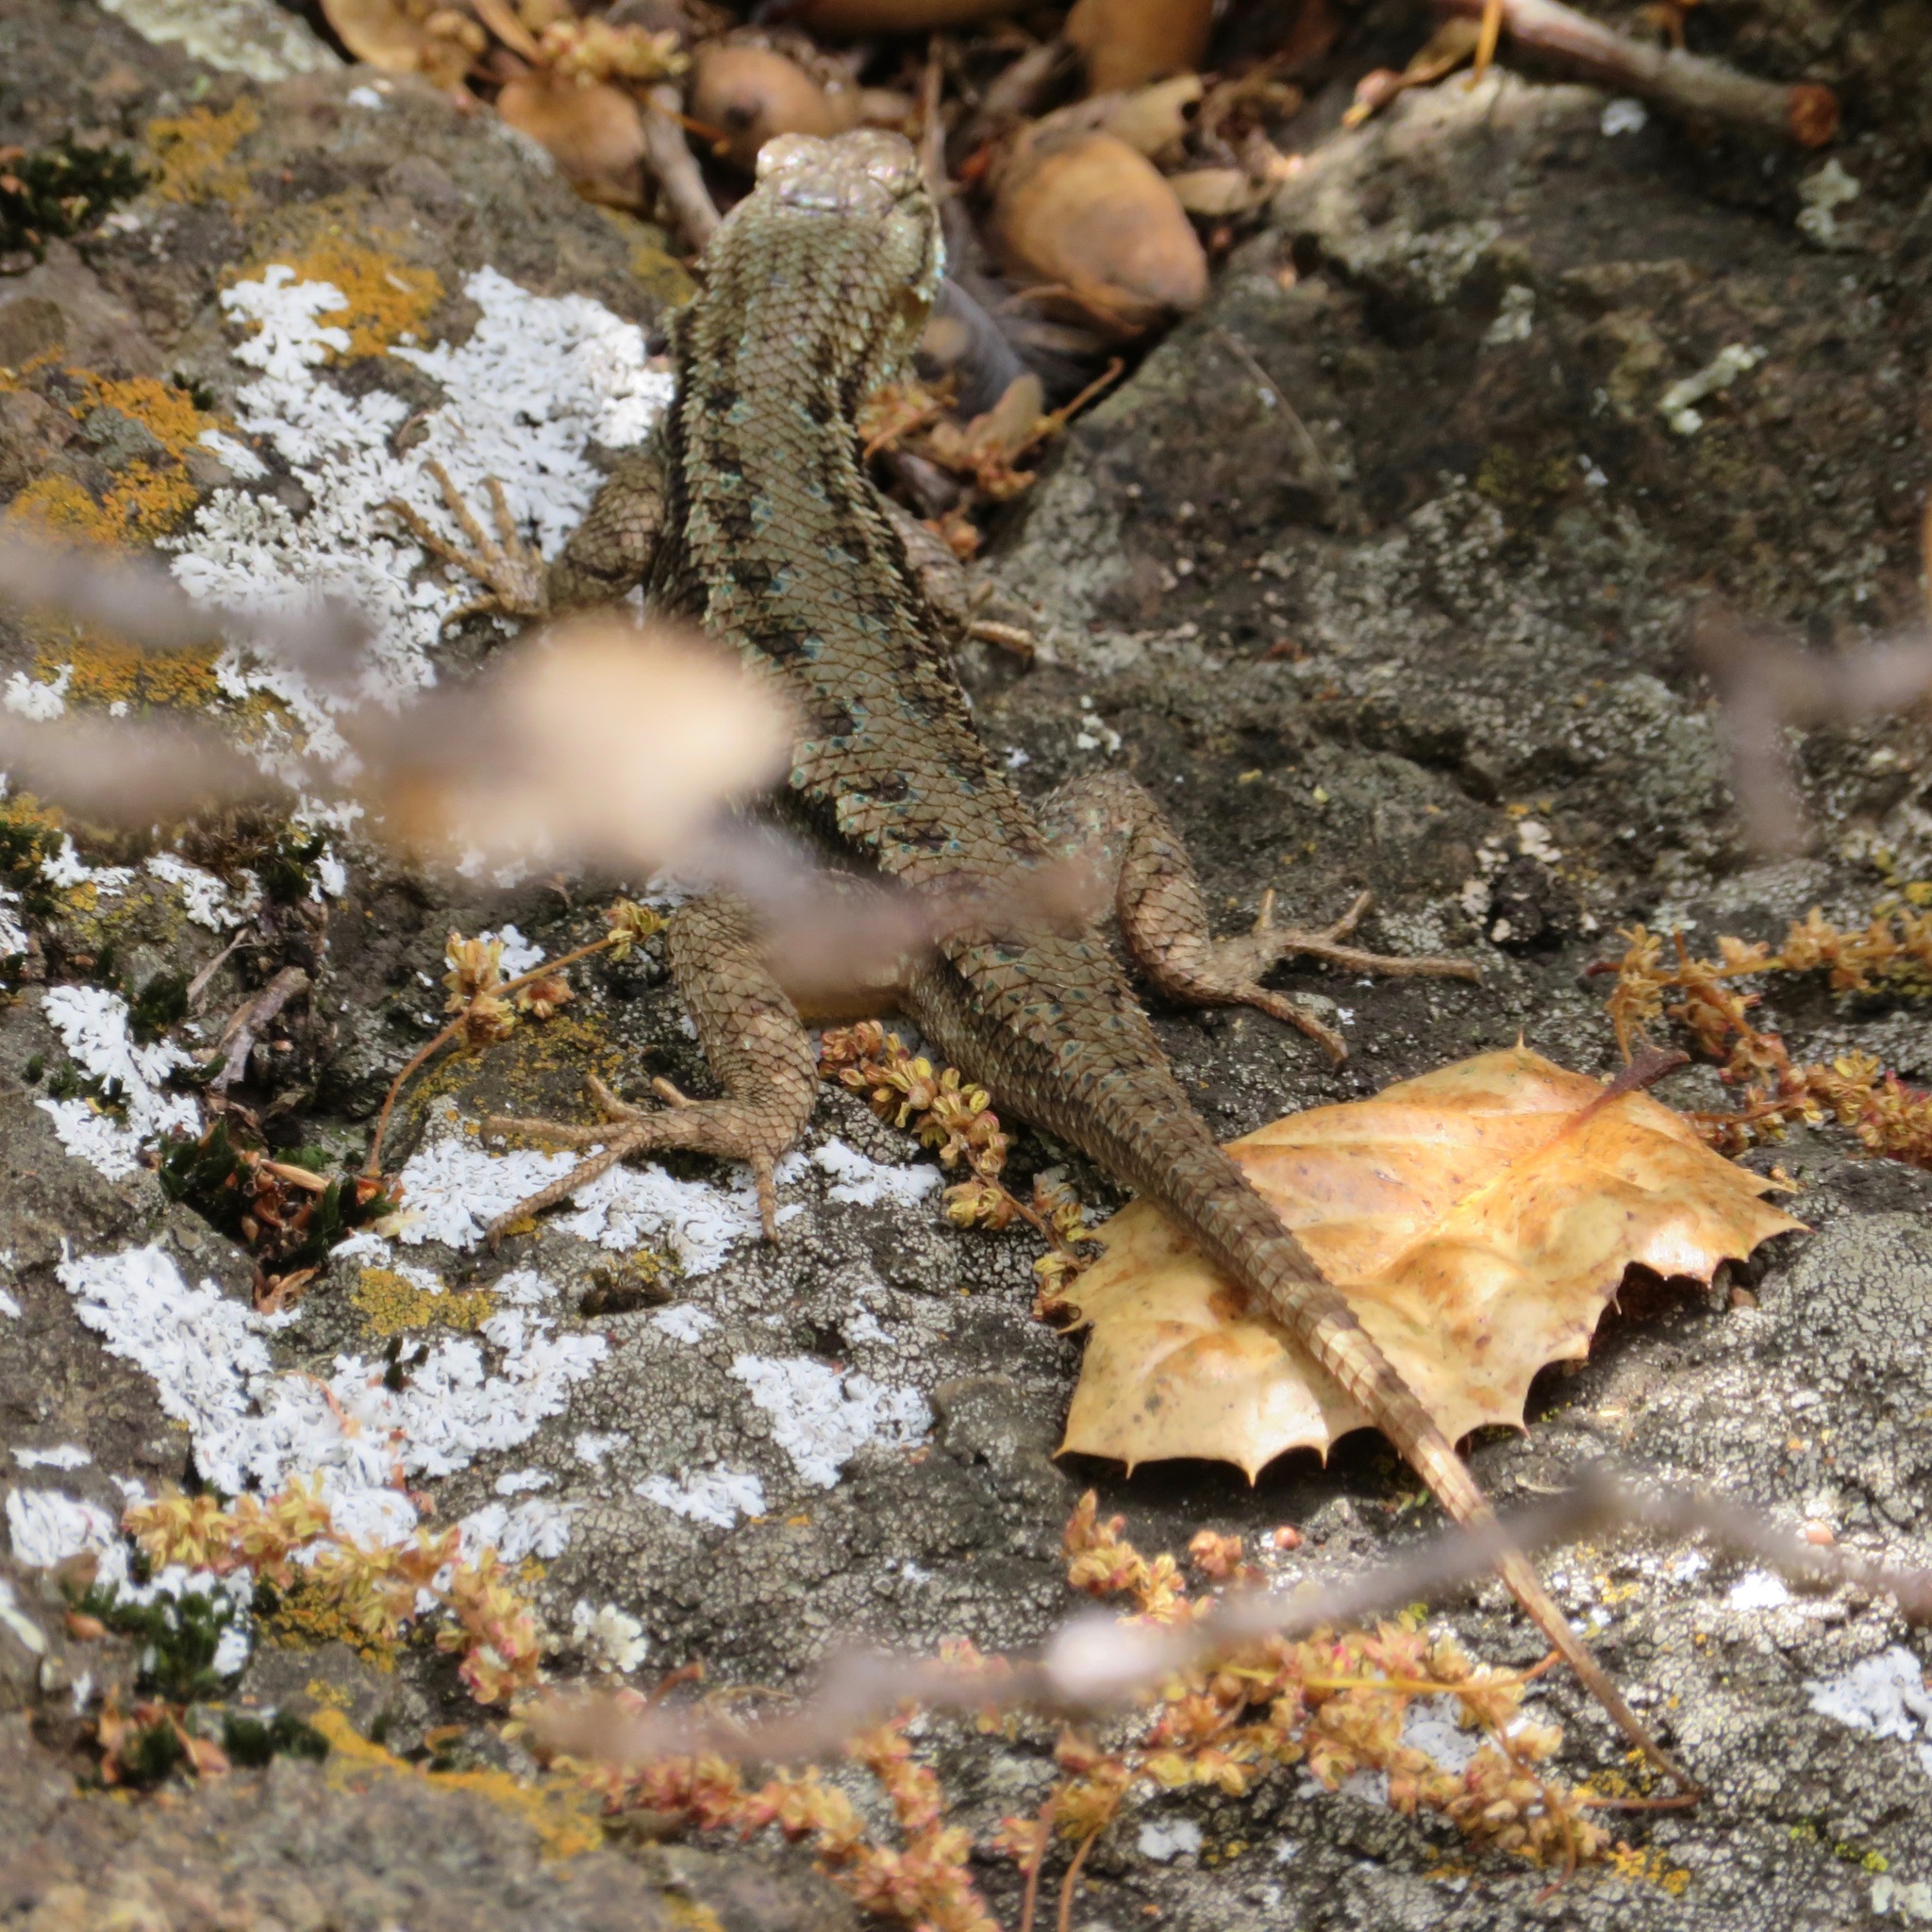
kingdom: Animalia
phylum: Chordata
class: Squamata
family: Phrynosomatidae
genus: Sceloporus
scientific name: Sceloporus occidentalis
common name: Western fence lizard
